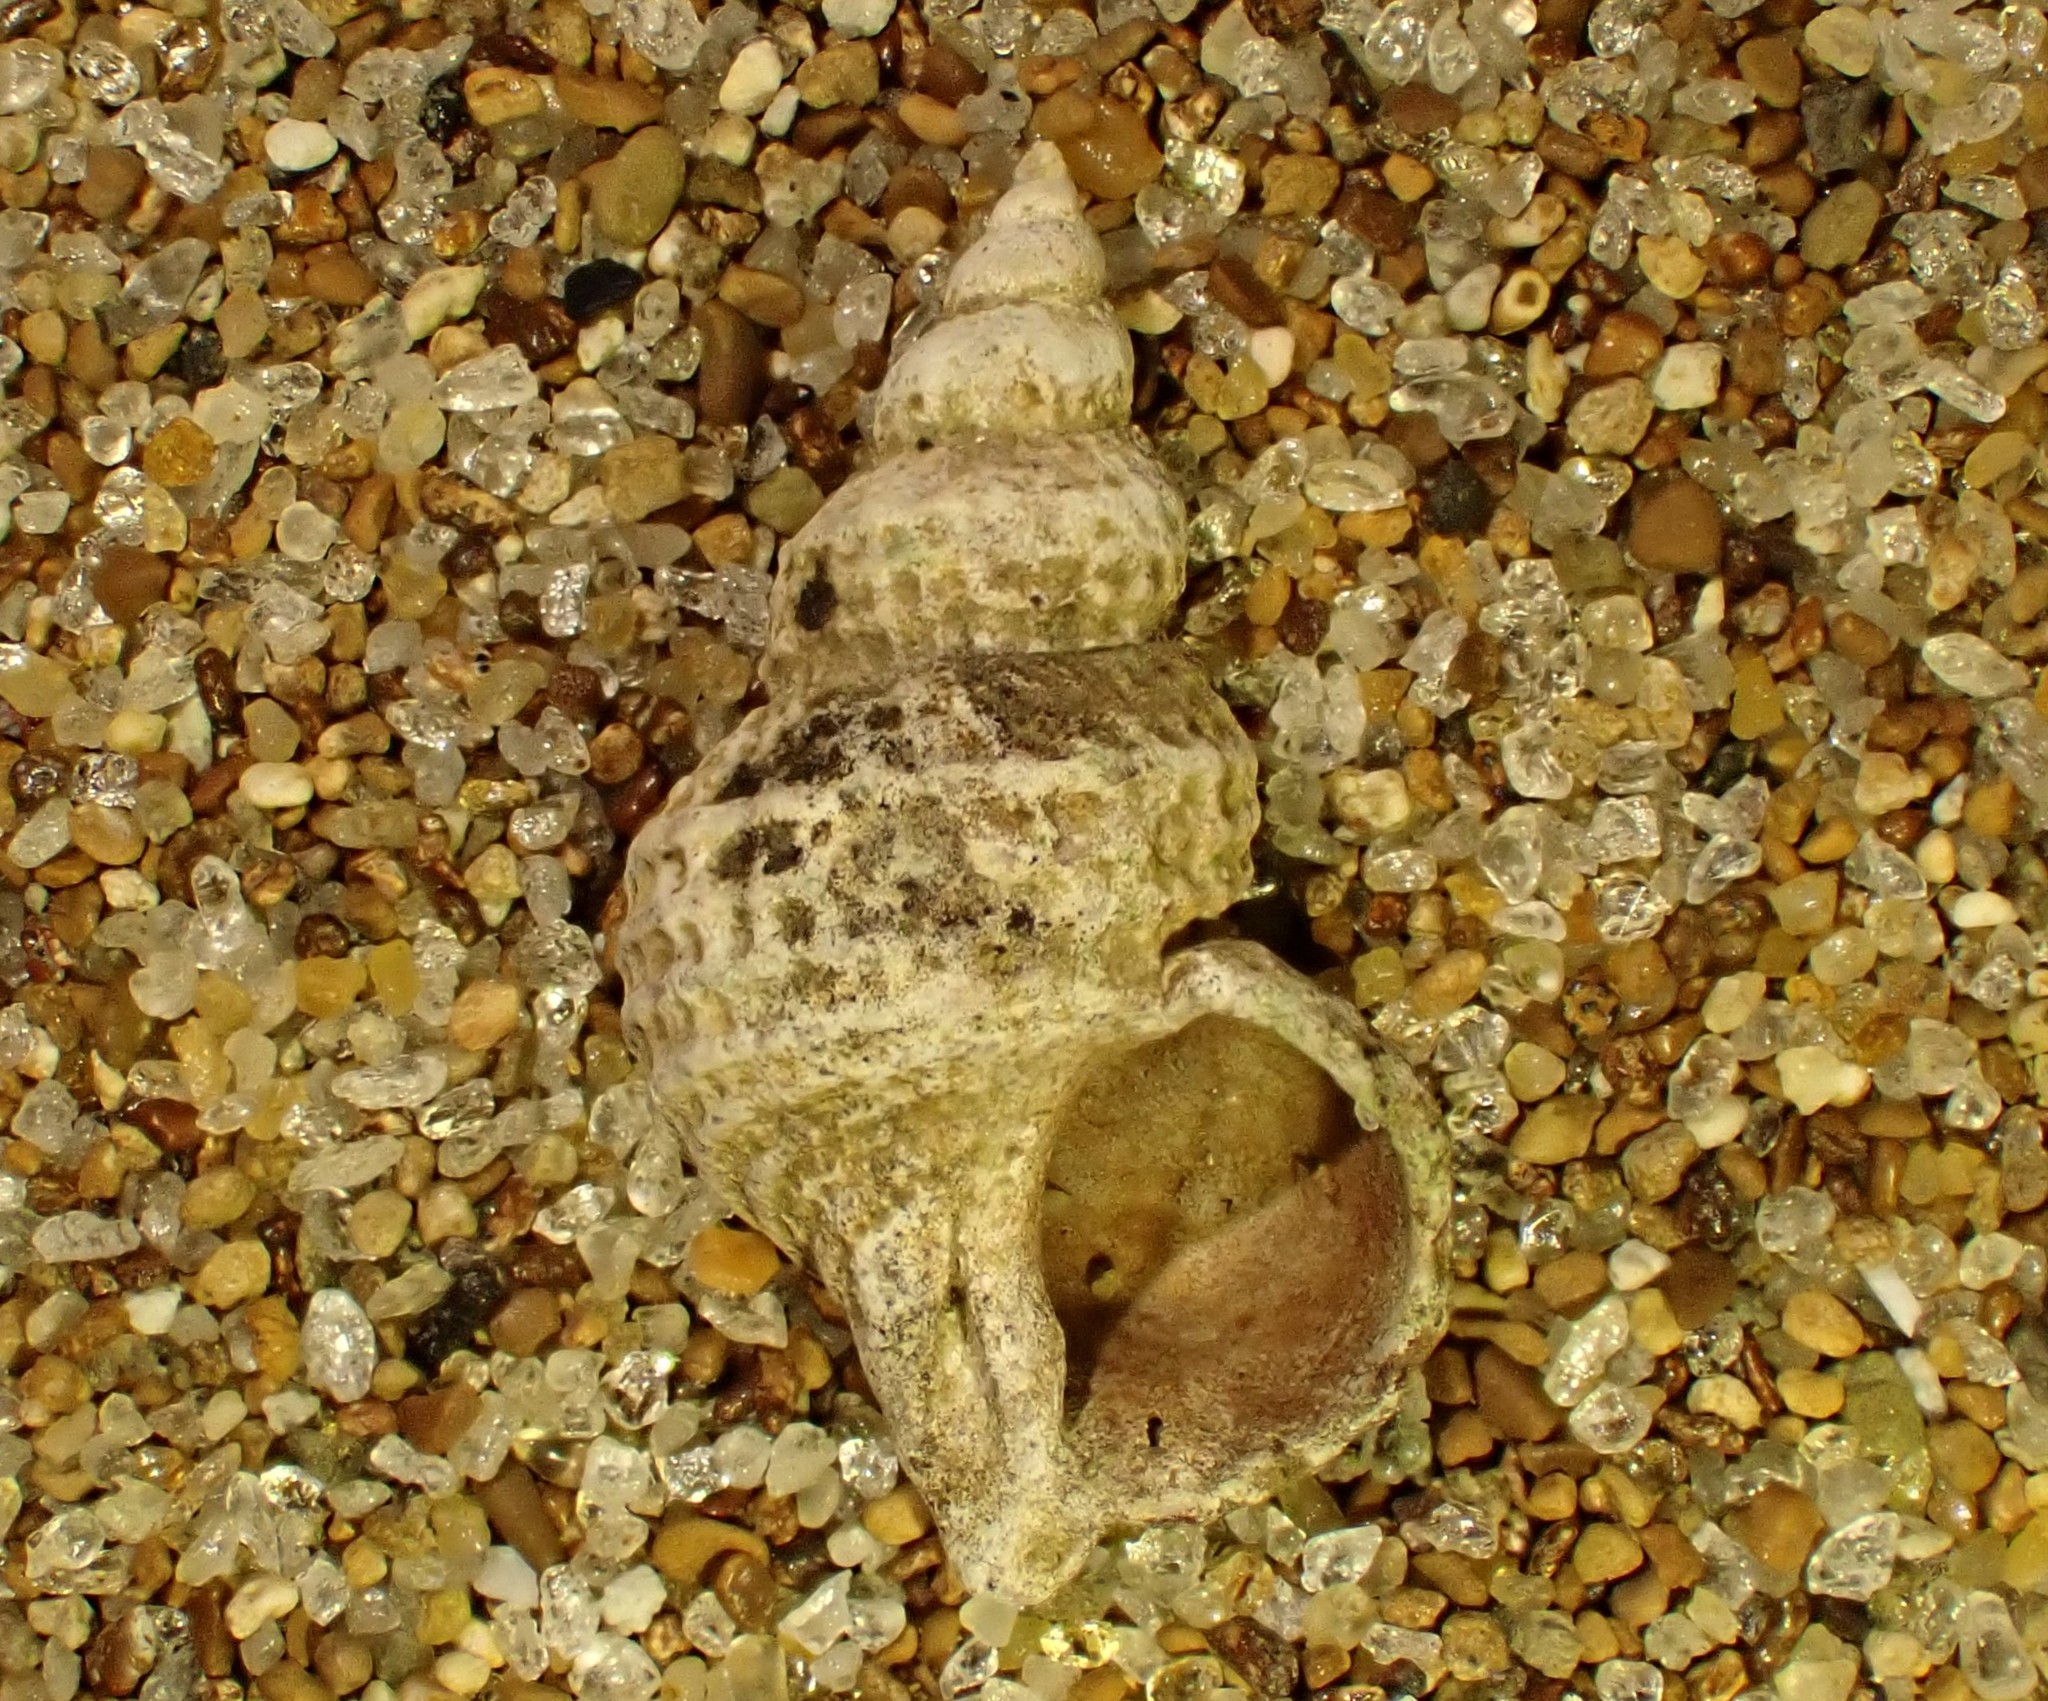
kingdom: Animalia
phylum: Mollusca
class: Gastropoda
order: Littorinimorpha
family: Capulidae
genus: Trichosirius
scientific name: Trichosirius inornatus
